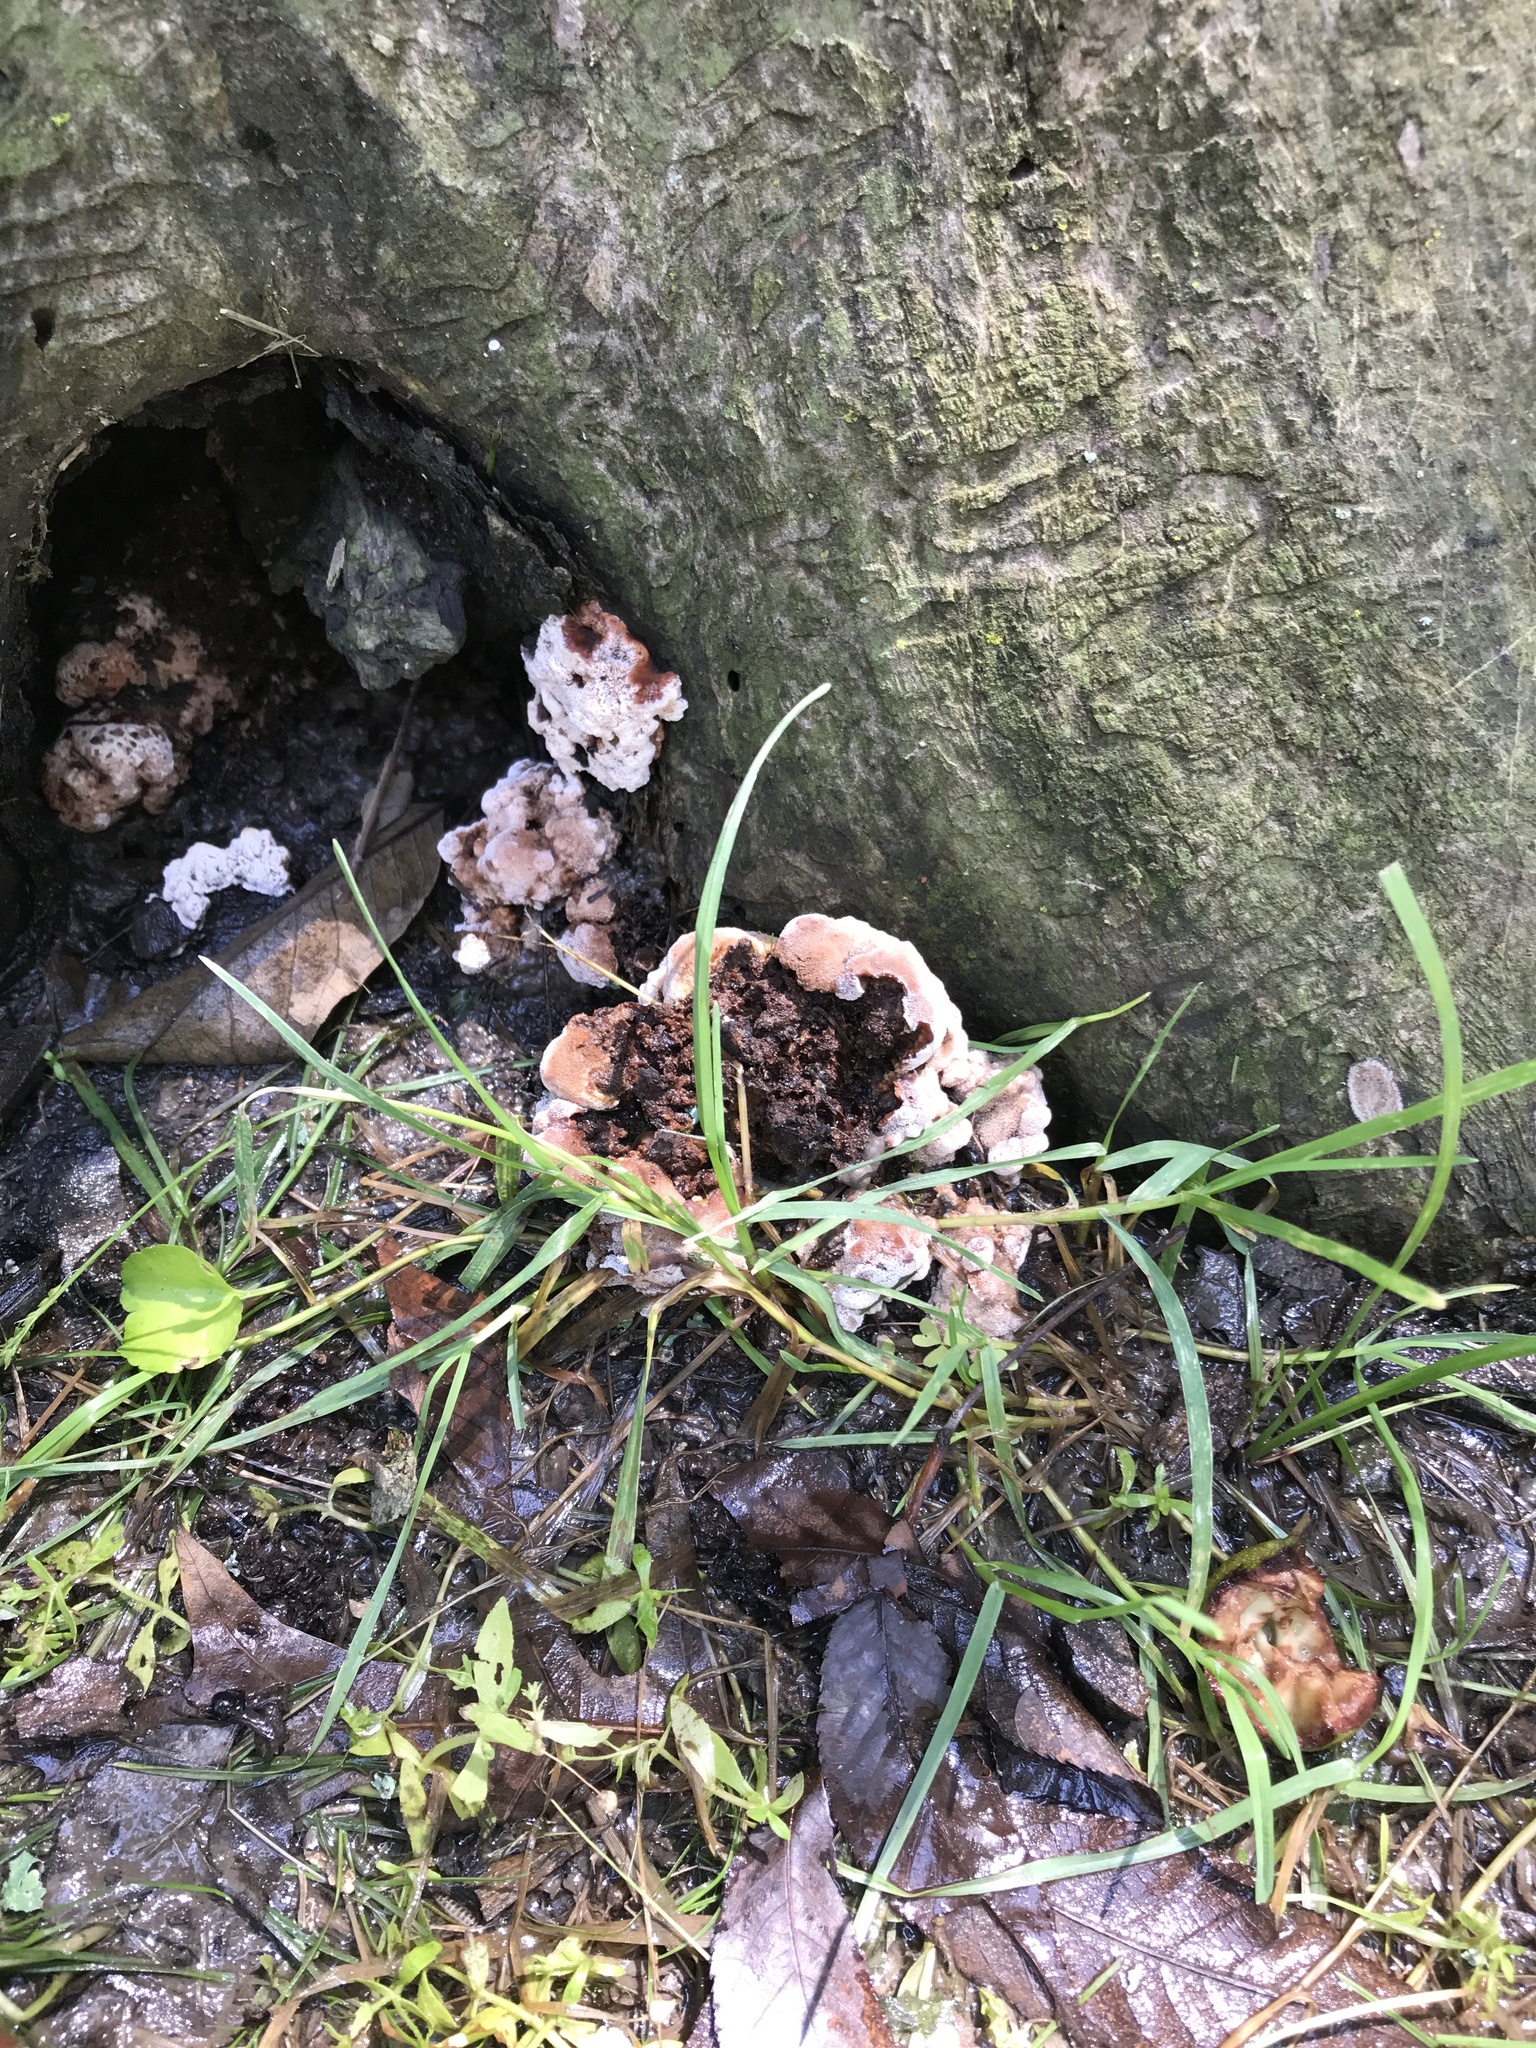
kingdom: Fungi
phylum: Basidiomycota
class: Agaricomycetes
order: Polyporales
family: Podoscyphaceae
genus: Abortiporus
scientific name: Abortiporus biennis
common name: Blushing rosette
